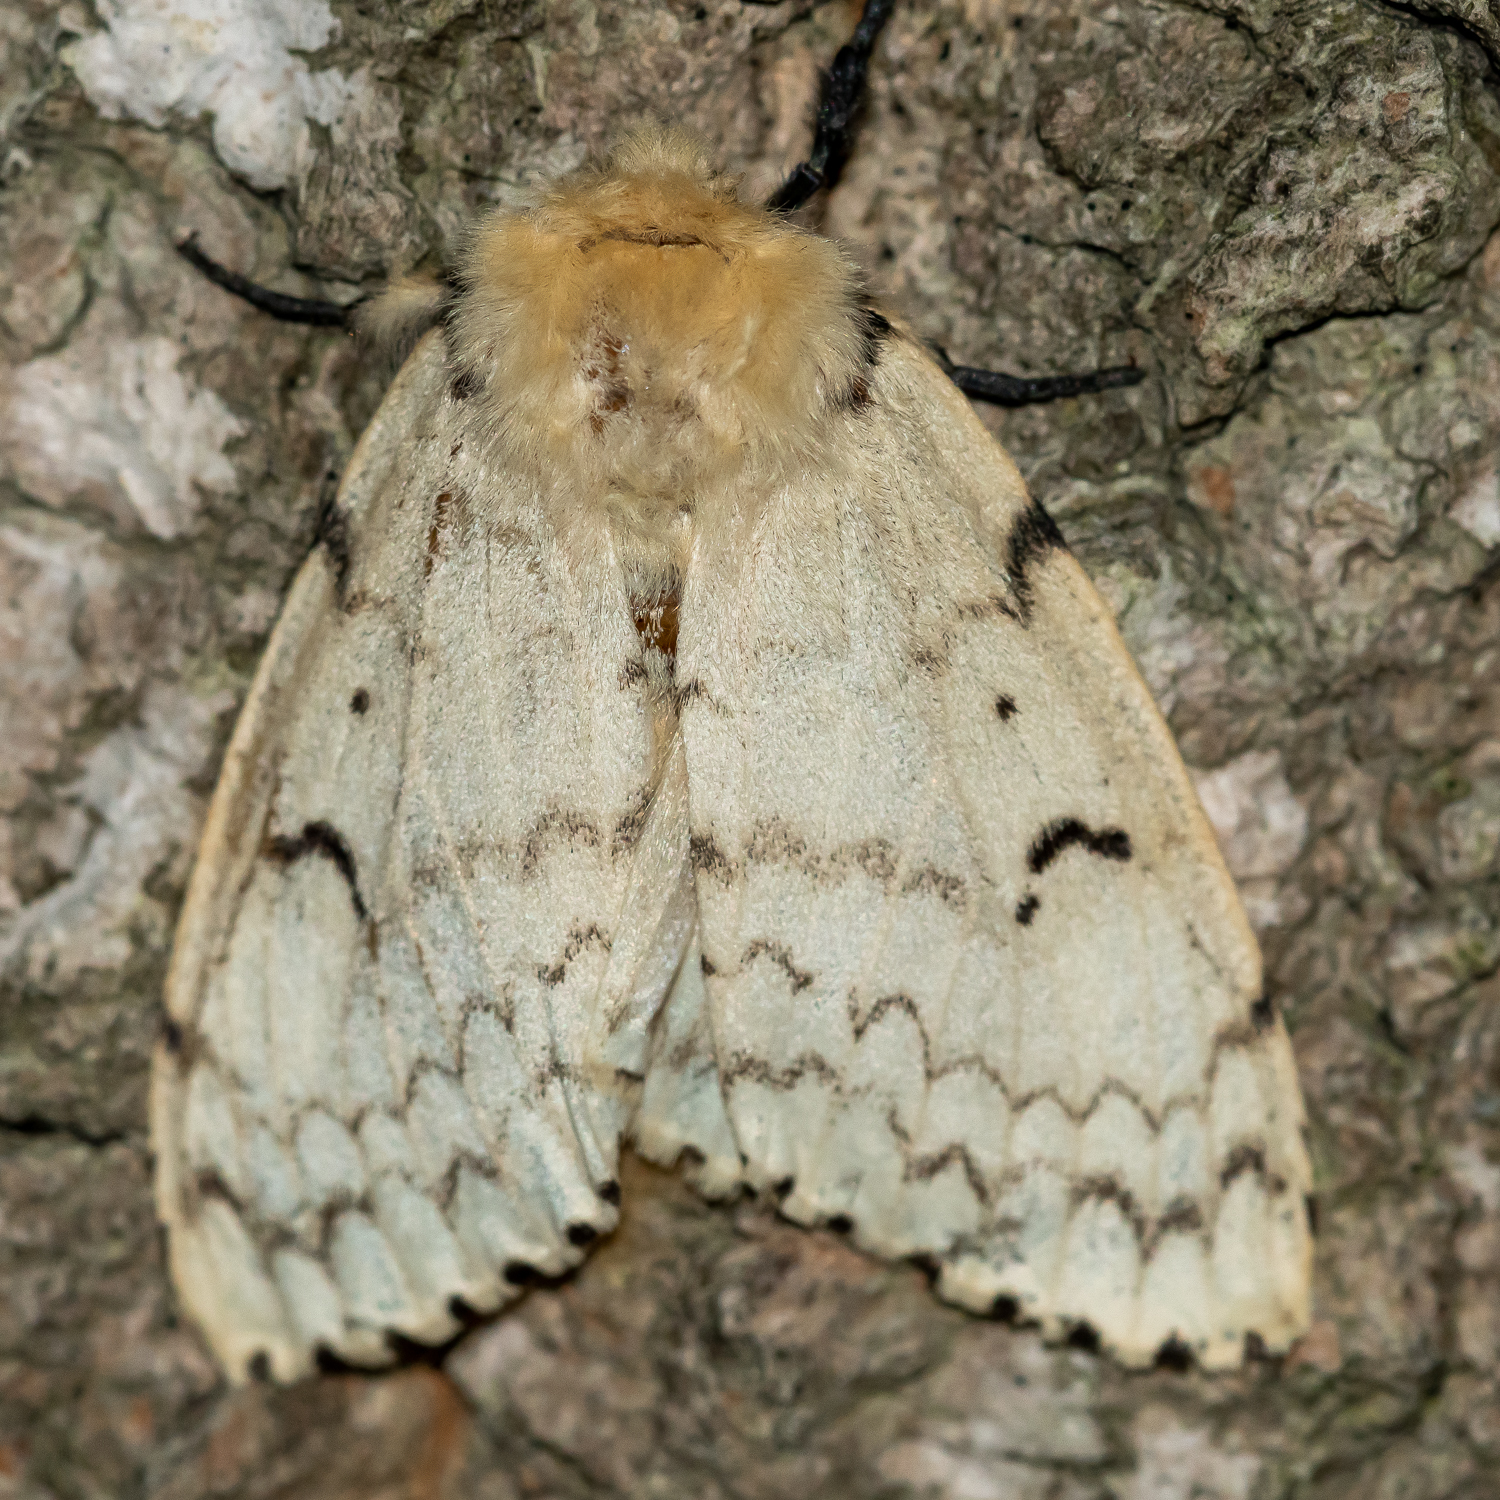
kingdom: Animalia
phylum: Arthropoda
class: Insecta
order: Lepidoptera
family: Erebidae
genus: Lymantria
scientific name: Lymantria dispar
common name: Gypsy moth
